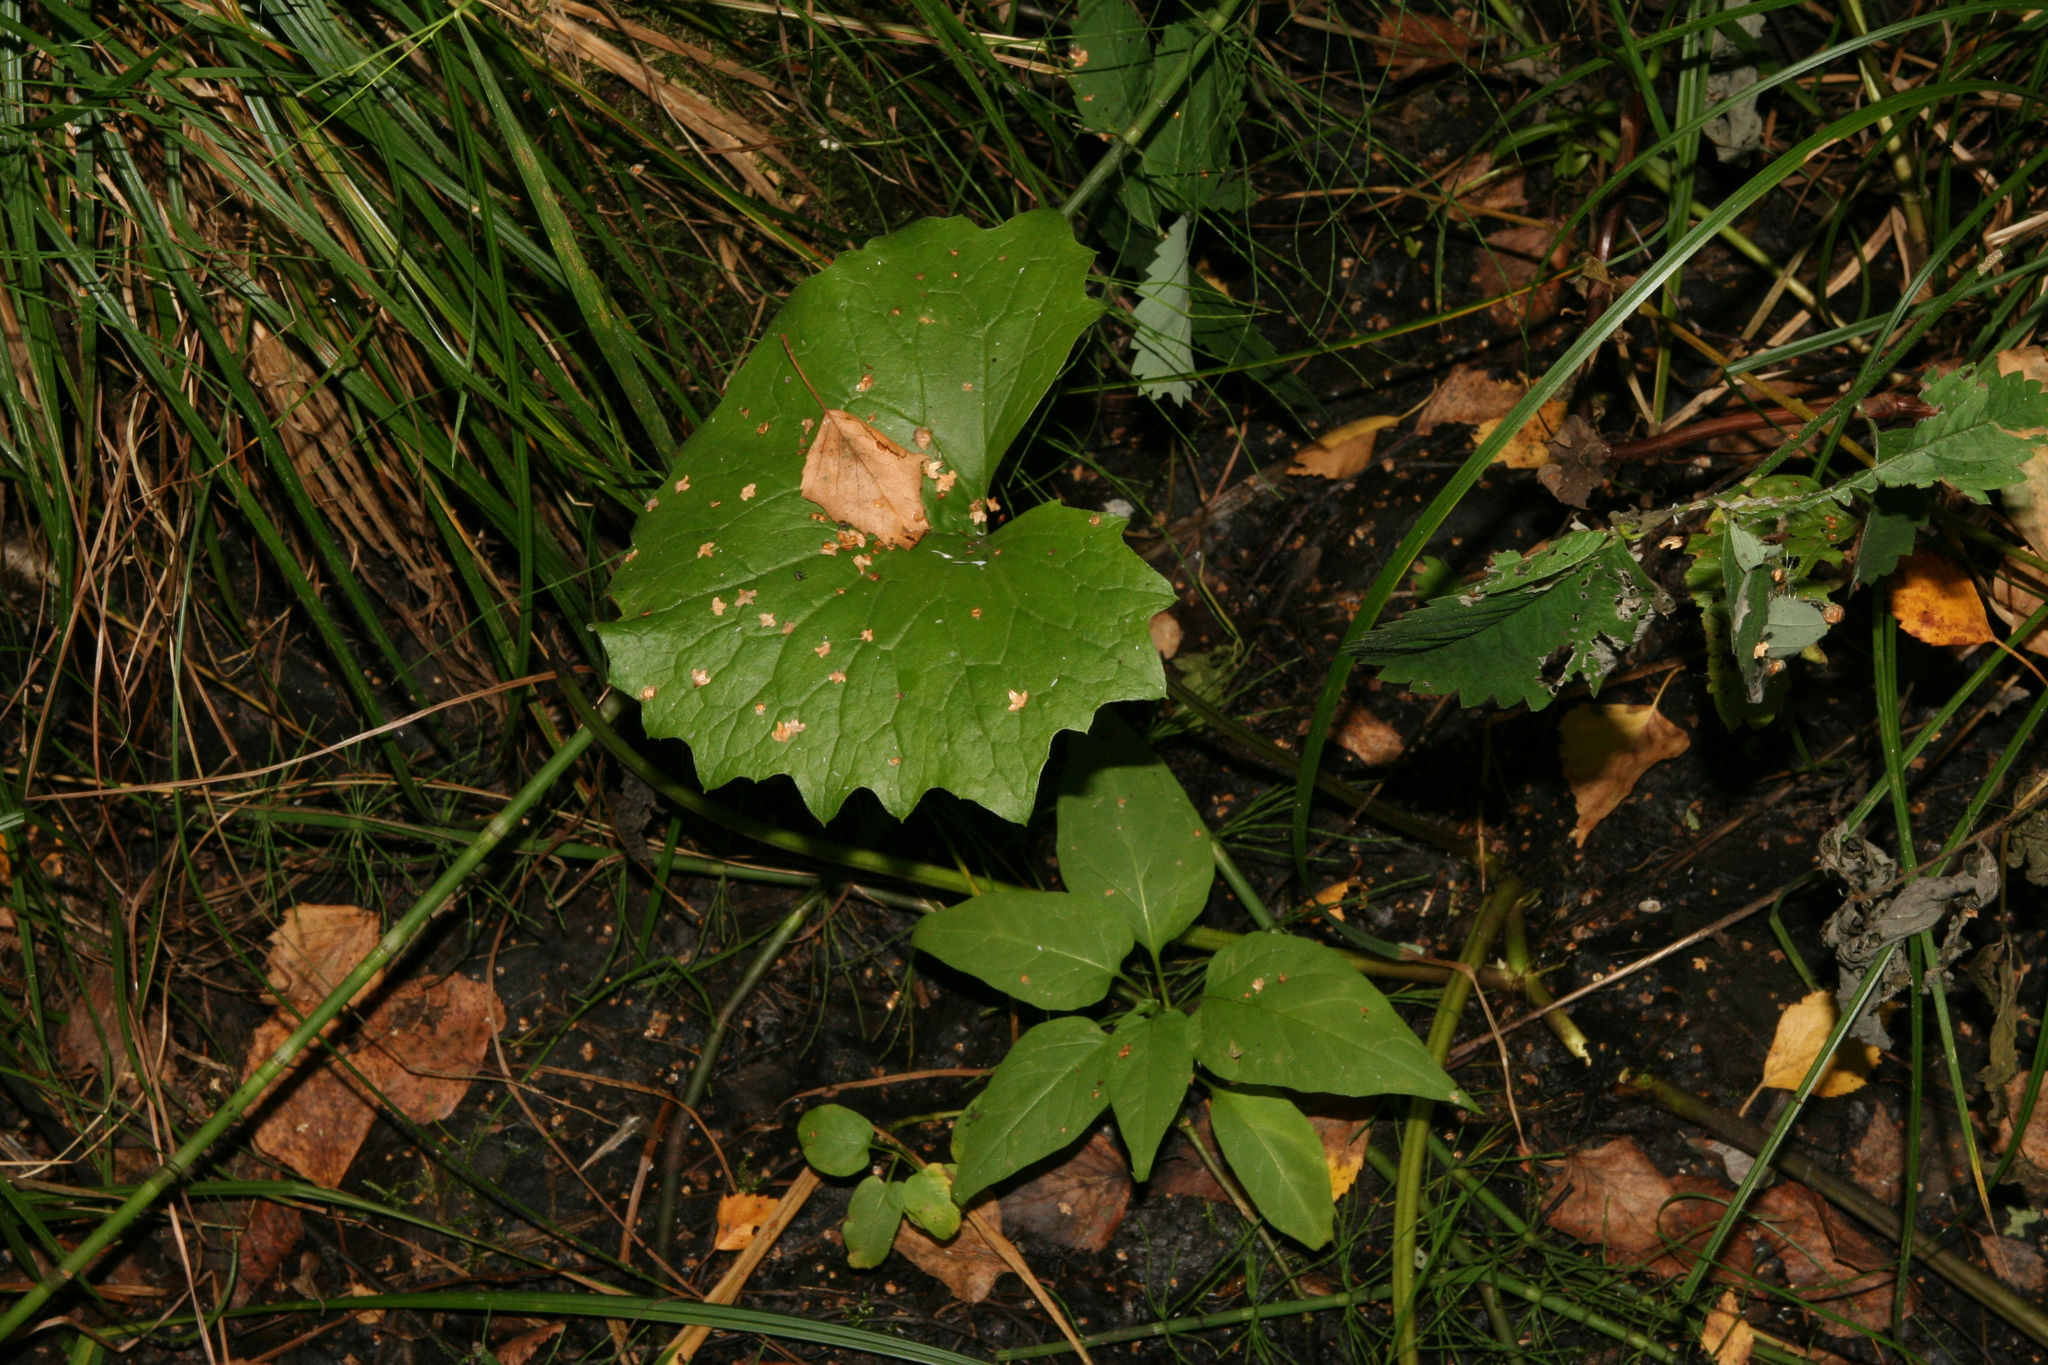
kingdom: Plantae
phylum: Tracheophyta
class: Magnoliopsida
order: Asterales
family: Asteraceae
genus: Petasites
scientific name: Petasites frigidus
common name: Arctic butterbur
